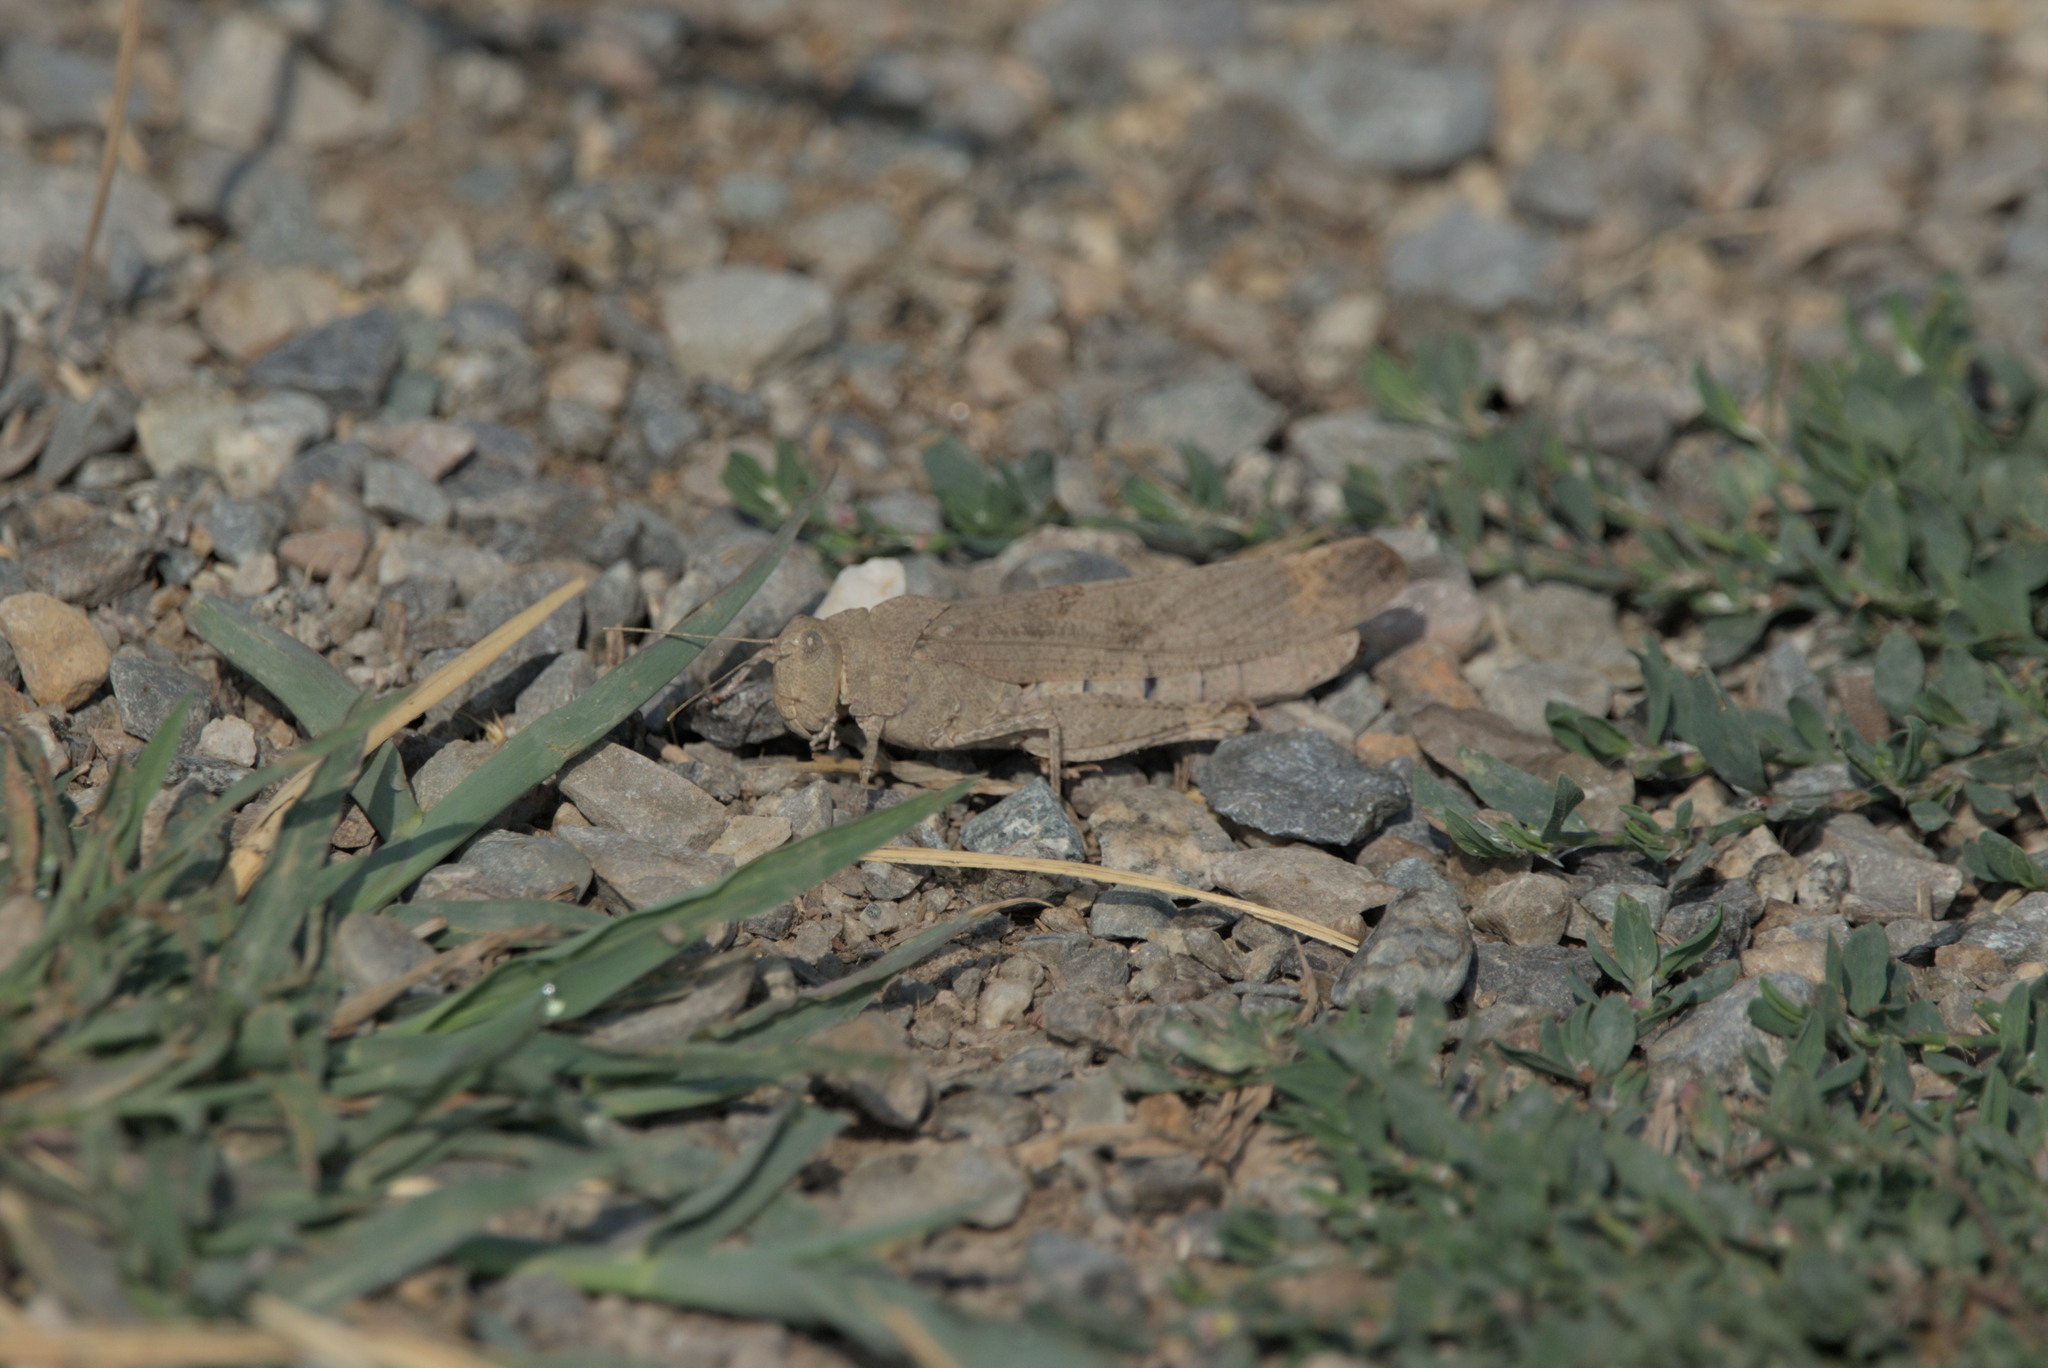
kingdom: Animalia
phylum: Arthropoda
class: Insecta
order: Orthoptera
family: Acrididae
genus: Dissosteira
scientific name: Dissosteira carolina
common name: Carolina grasshopper
